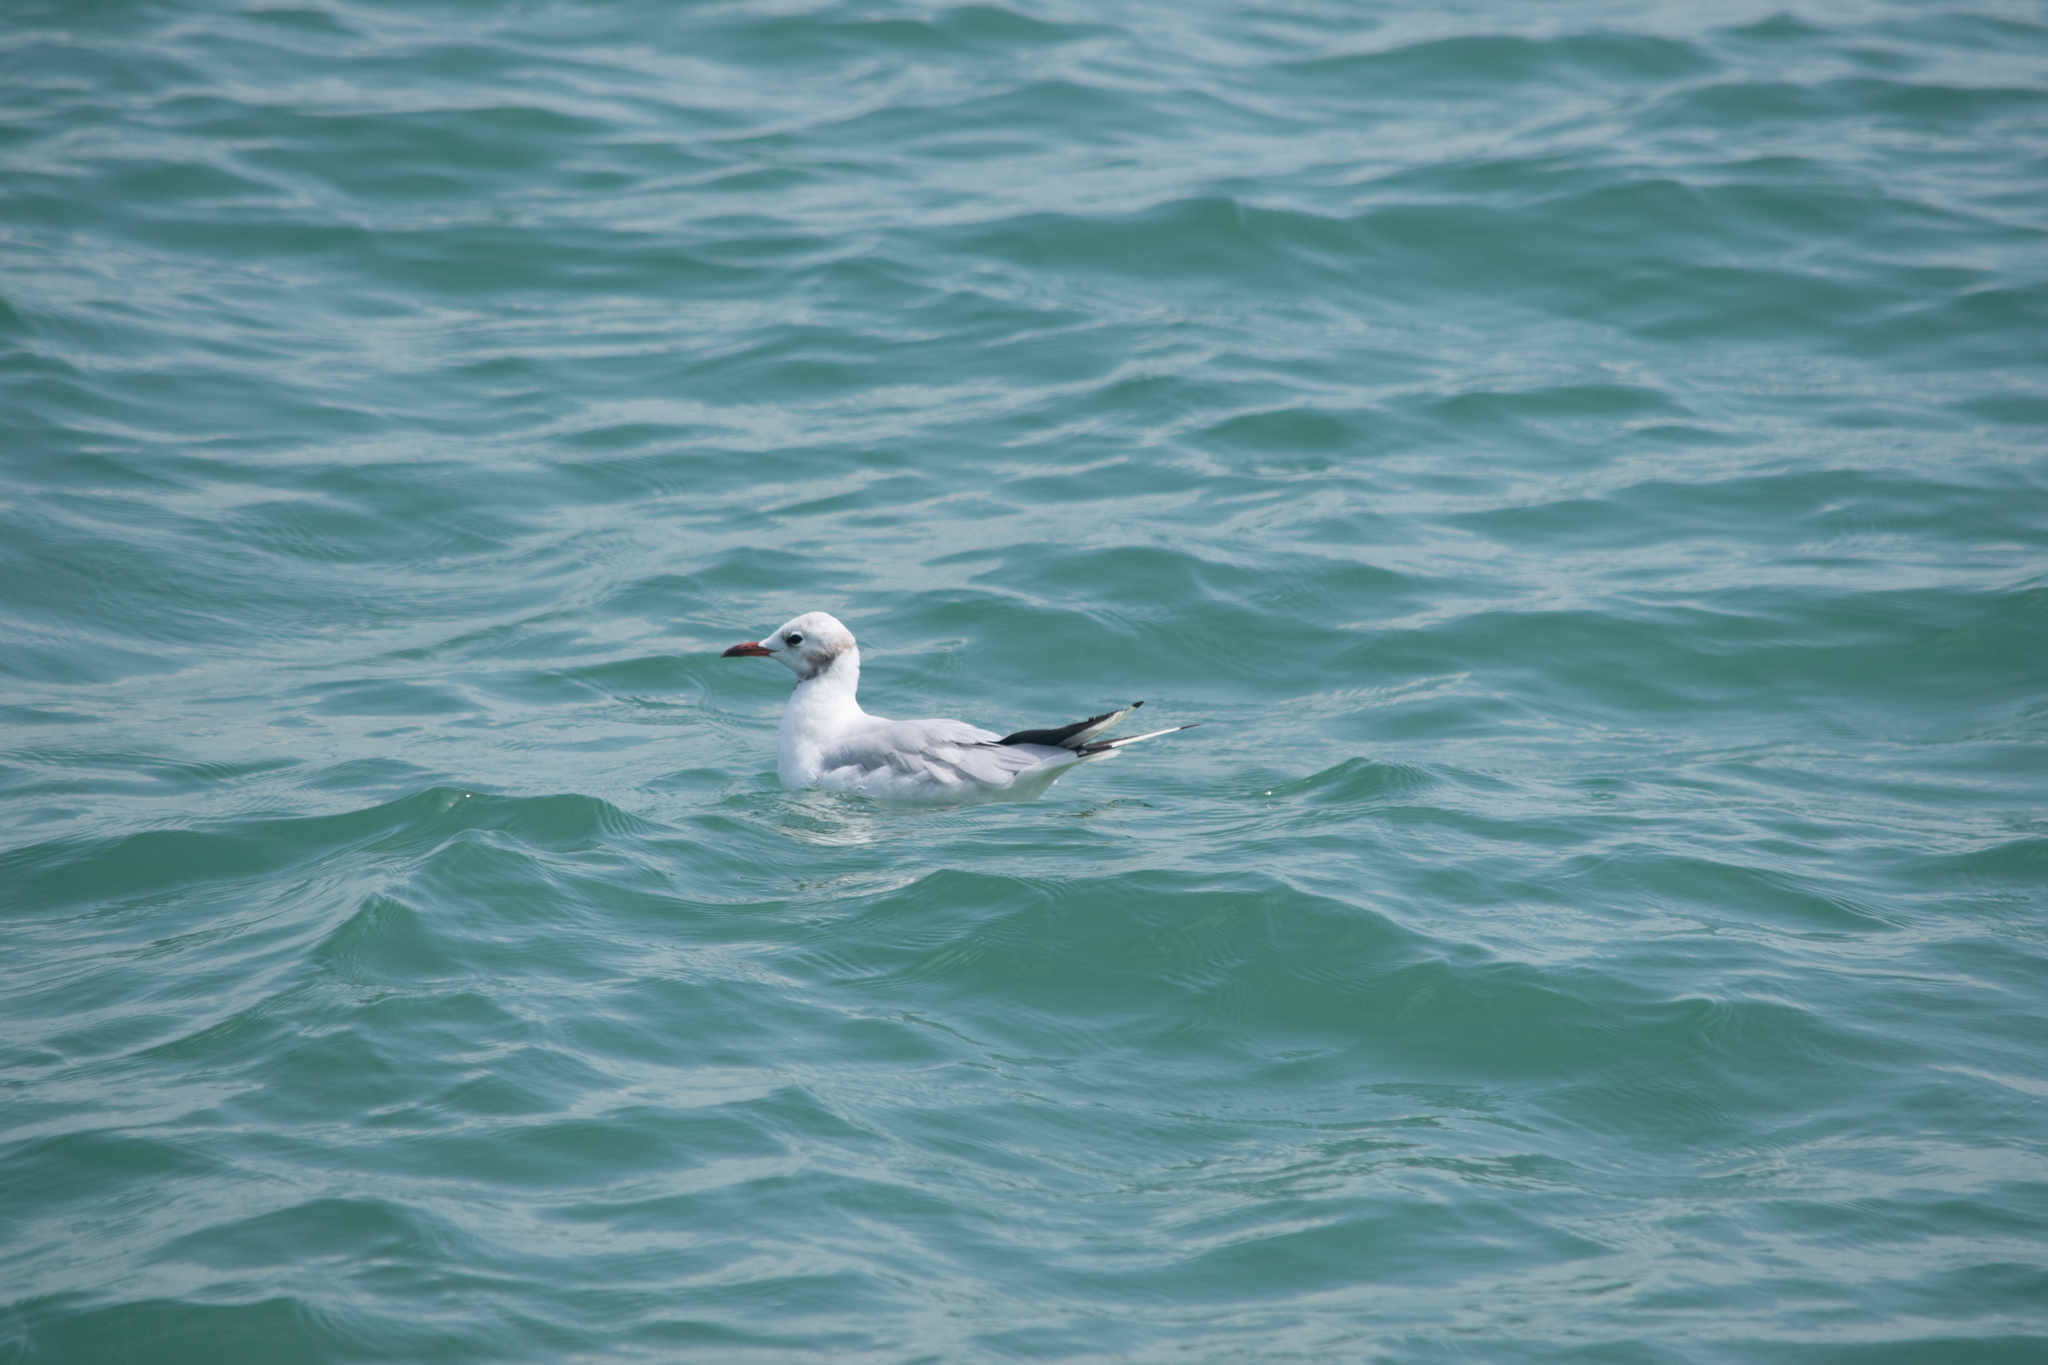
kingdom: Animalia
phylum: Chordata
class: Aves
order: Charadriiformes
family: Laridae
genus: Chroicocephalus
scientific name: Chroicocephalus ridibundus
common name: Black-headed gull
